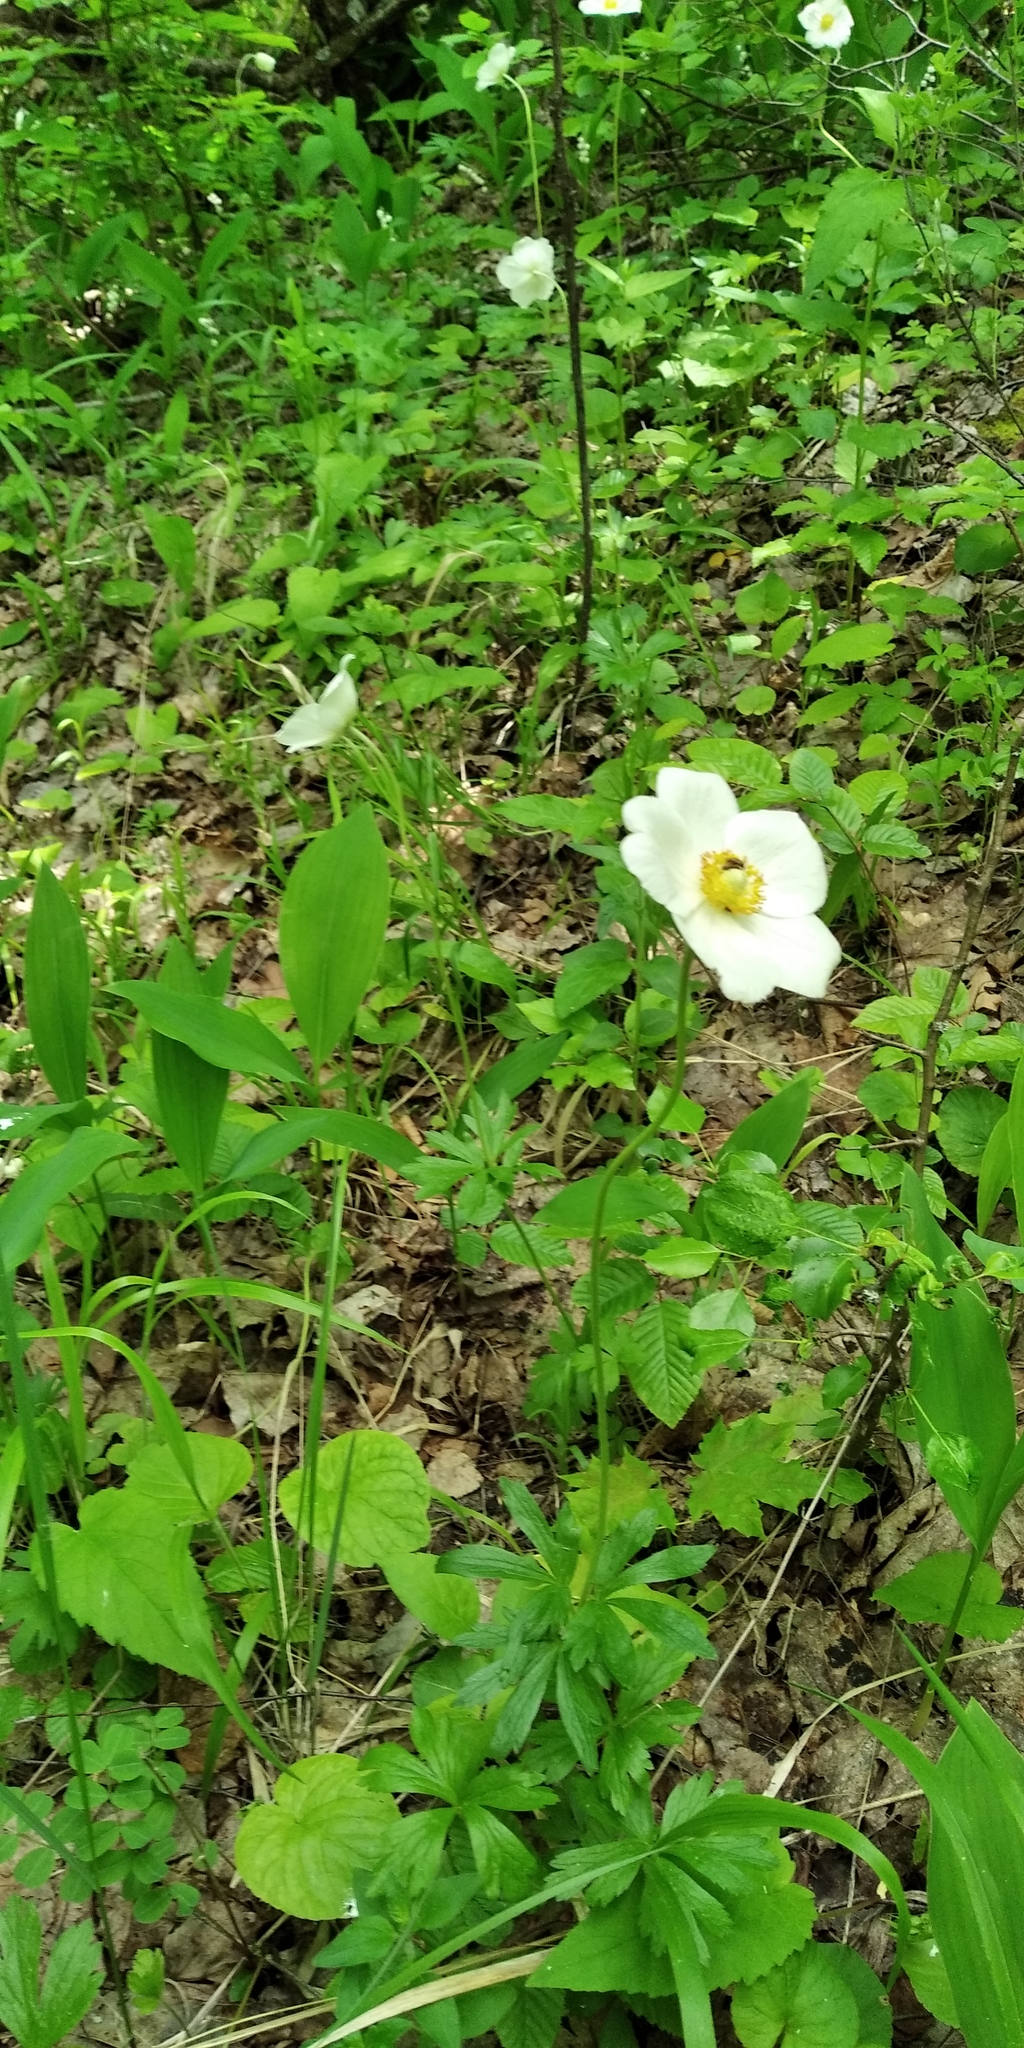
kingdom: Plantae
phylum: Tracheophyta
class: Magnoliopsida
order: Ranunculales
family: Ranunculaceae
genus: Anemone
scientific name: Anemone sylvestris
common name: Snowdrop anemone
